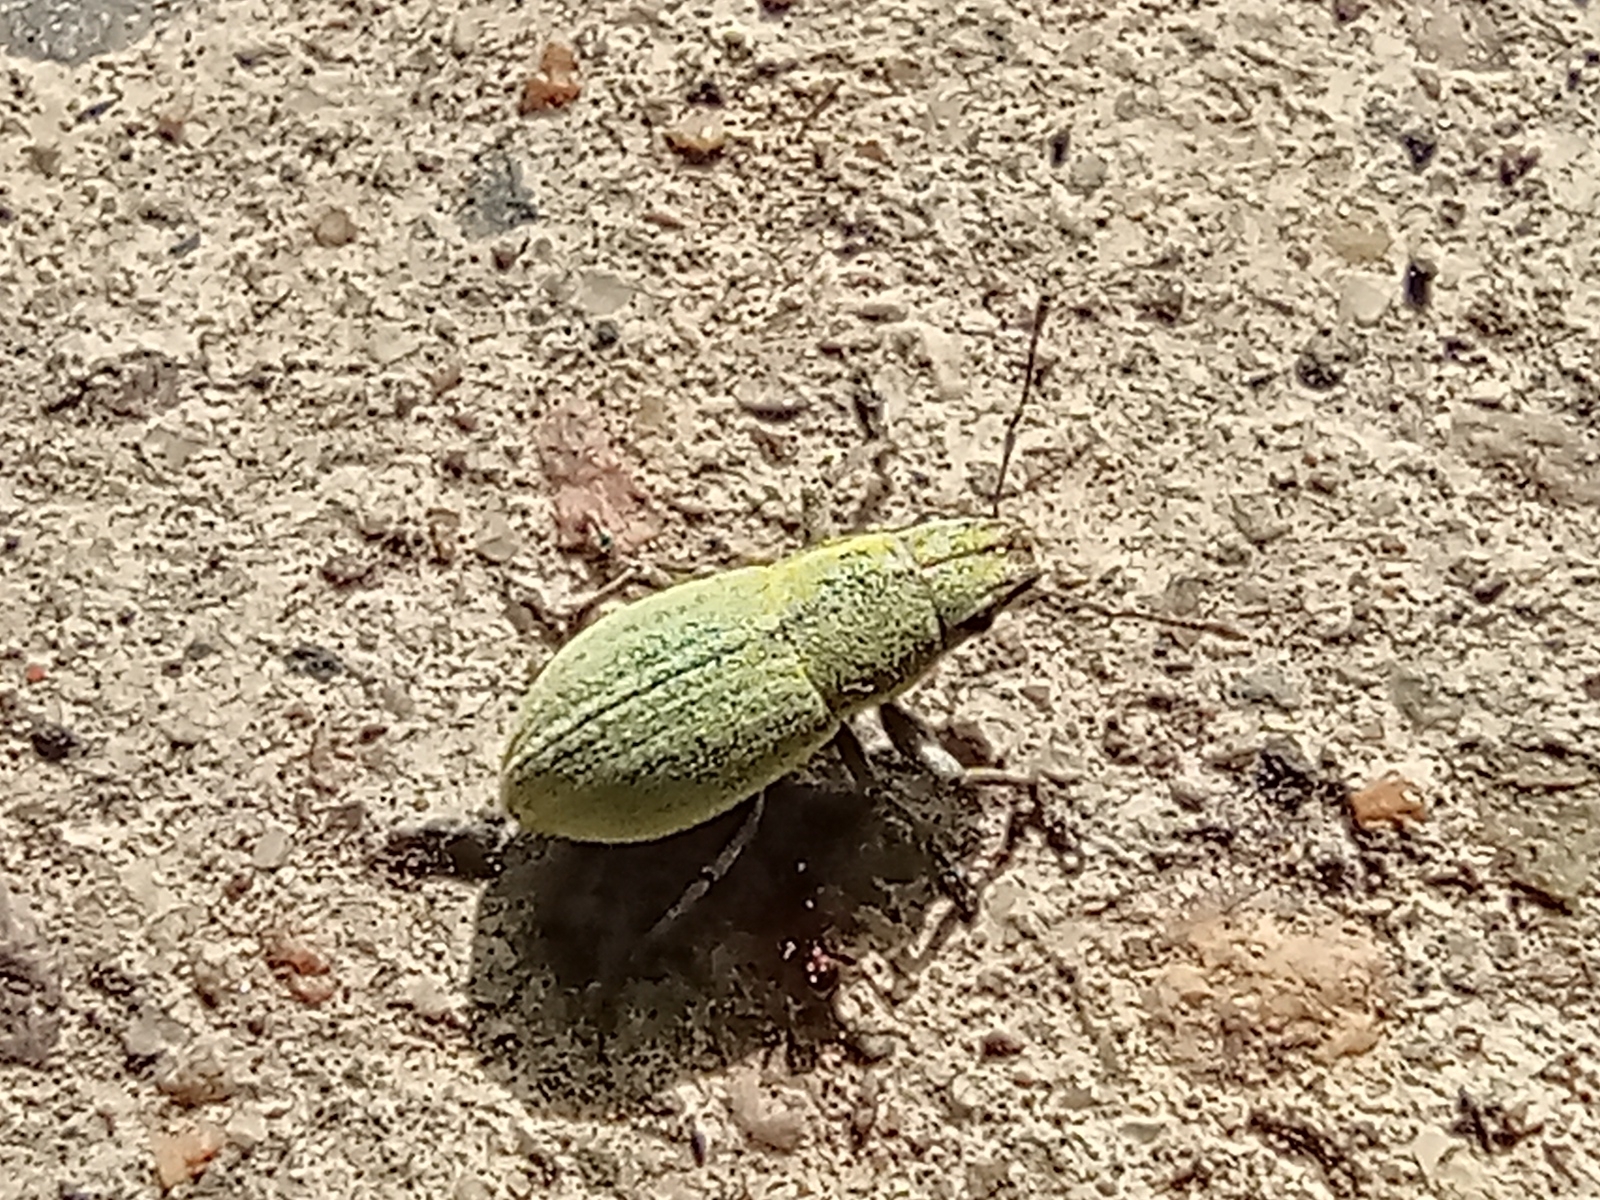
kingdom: Animalia
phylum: Arthropoda
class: Insecta
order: Coleoptera
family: Curculionidae
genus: Pantomorus
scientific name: Pantomorus viridisquamosus
